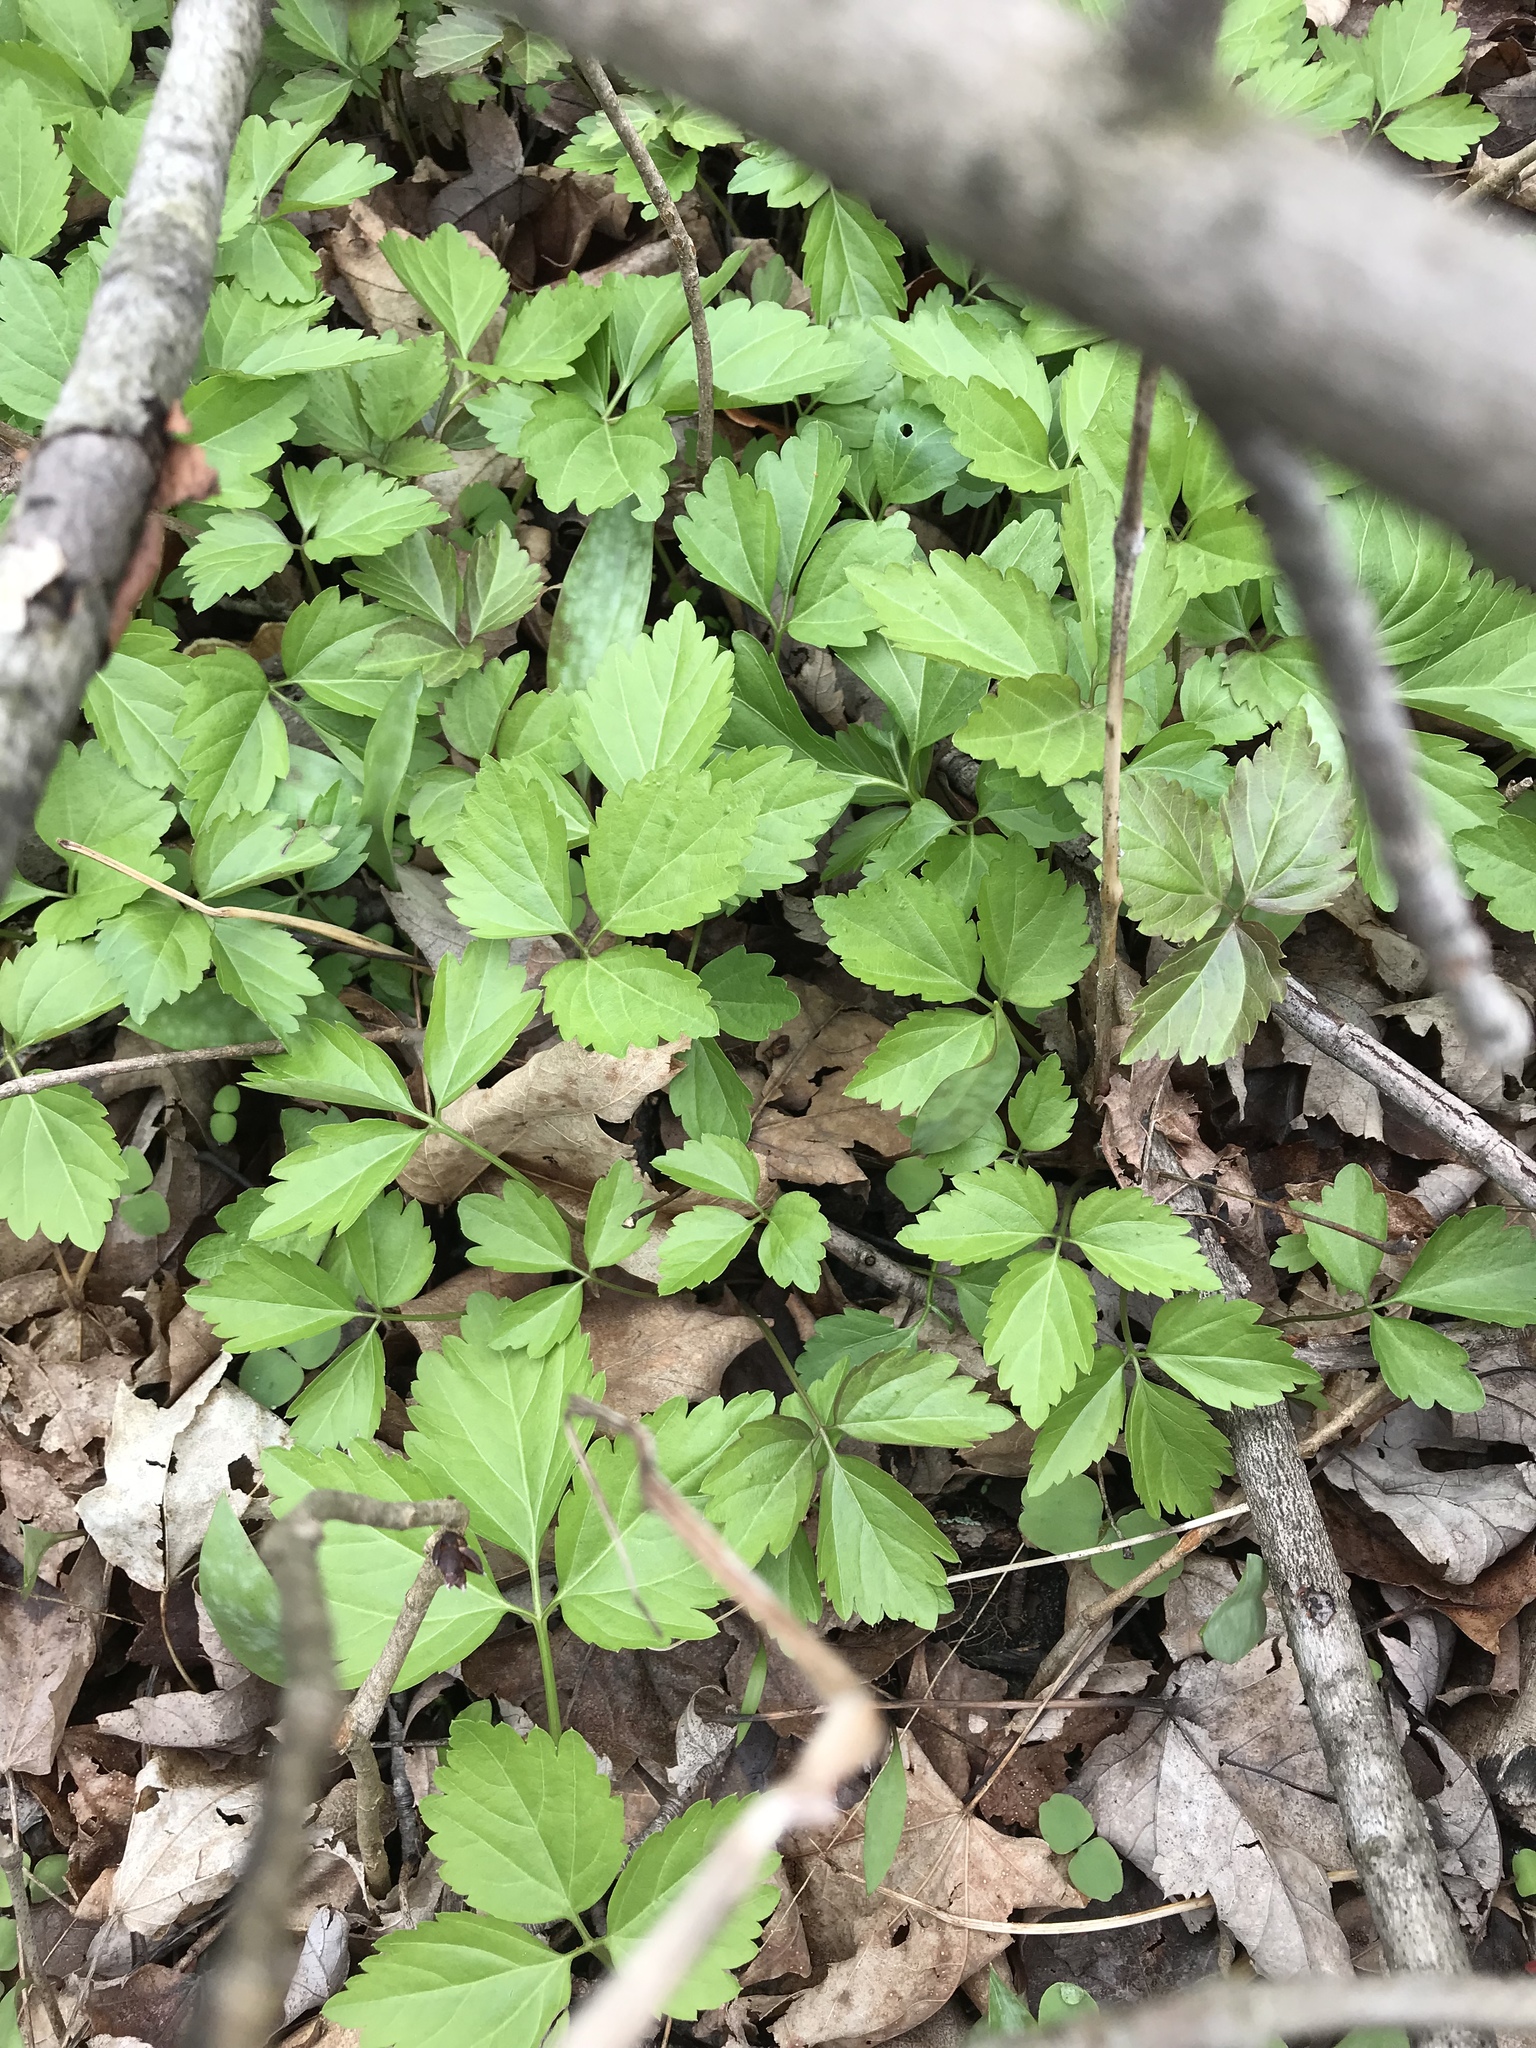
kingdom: Plantae
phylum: Tracheophyta
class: Magnoliopsida
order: Brassicales
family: Brassicaceae
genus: Cardamine
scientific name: Cardamine diphylla
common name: Broad-leaved toothwort
